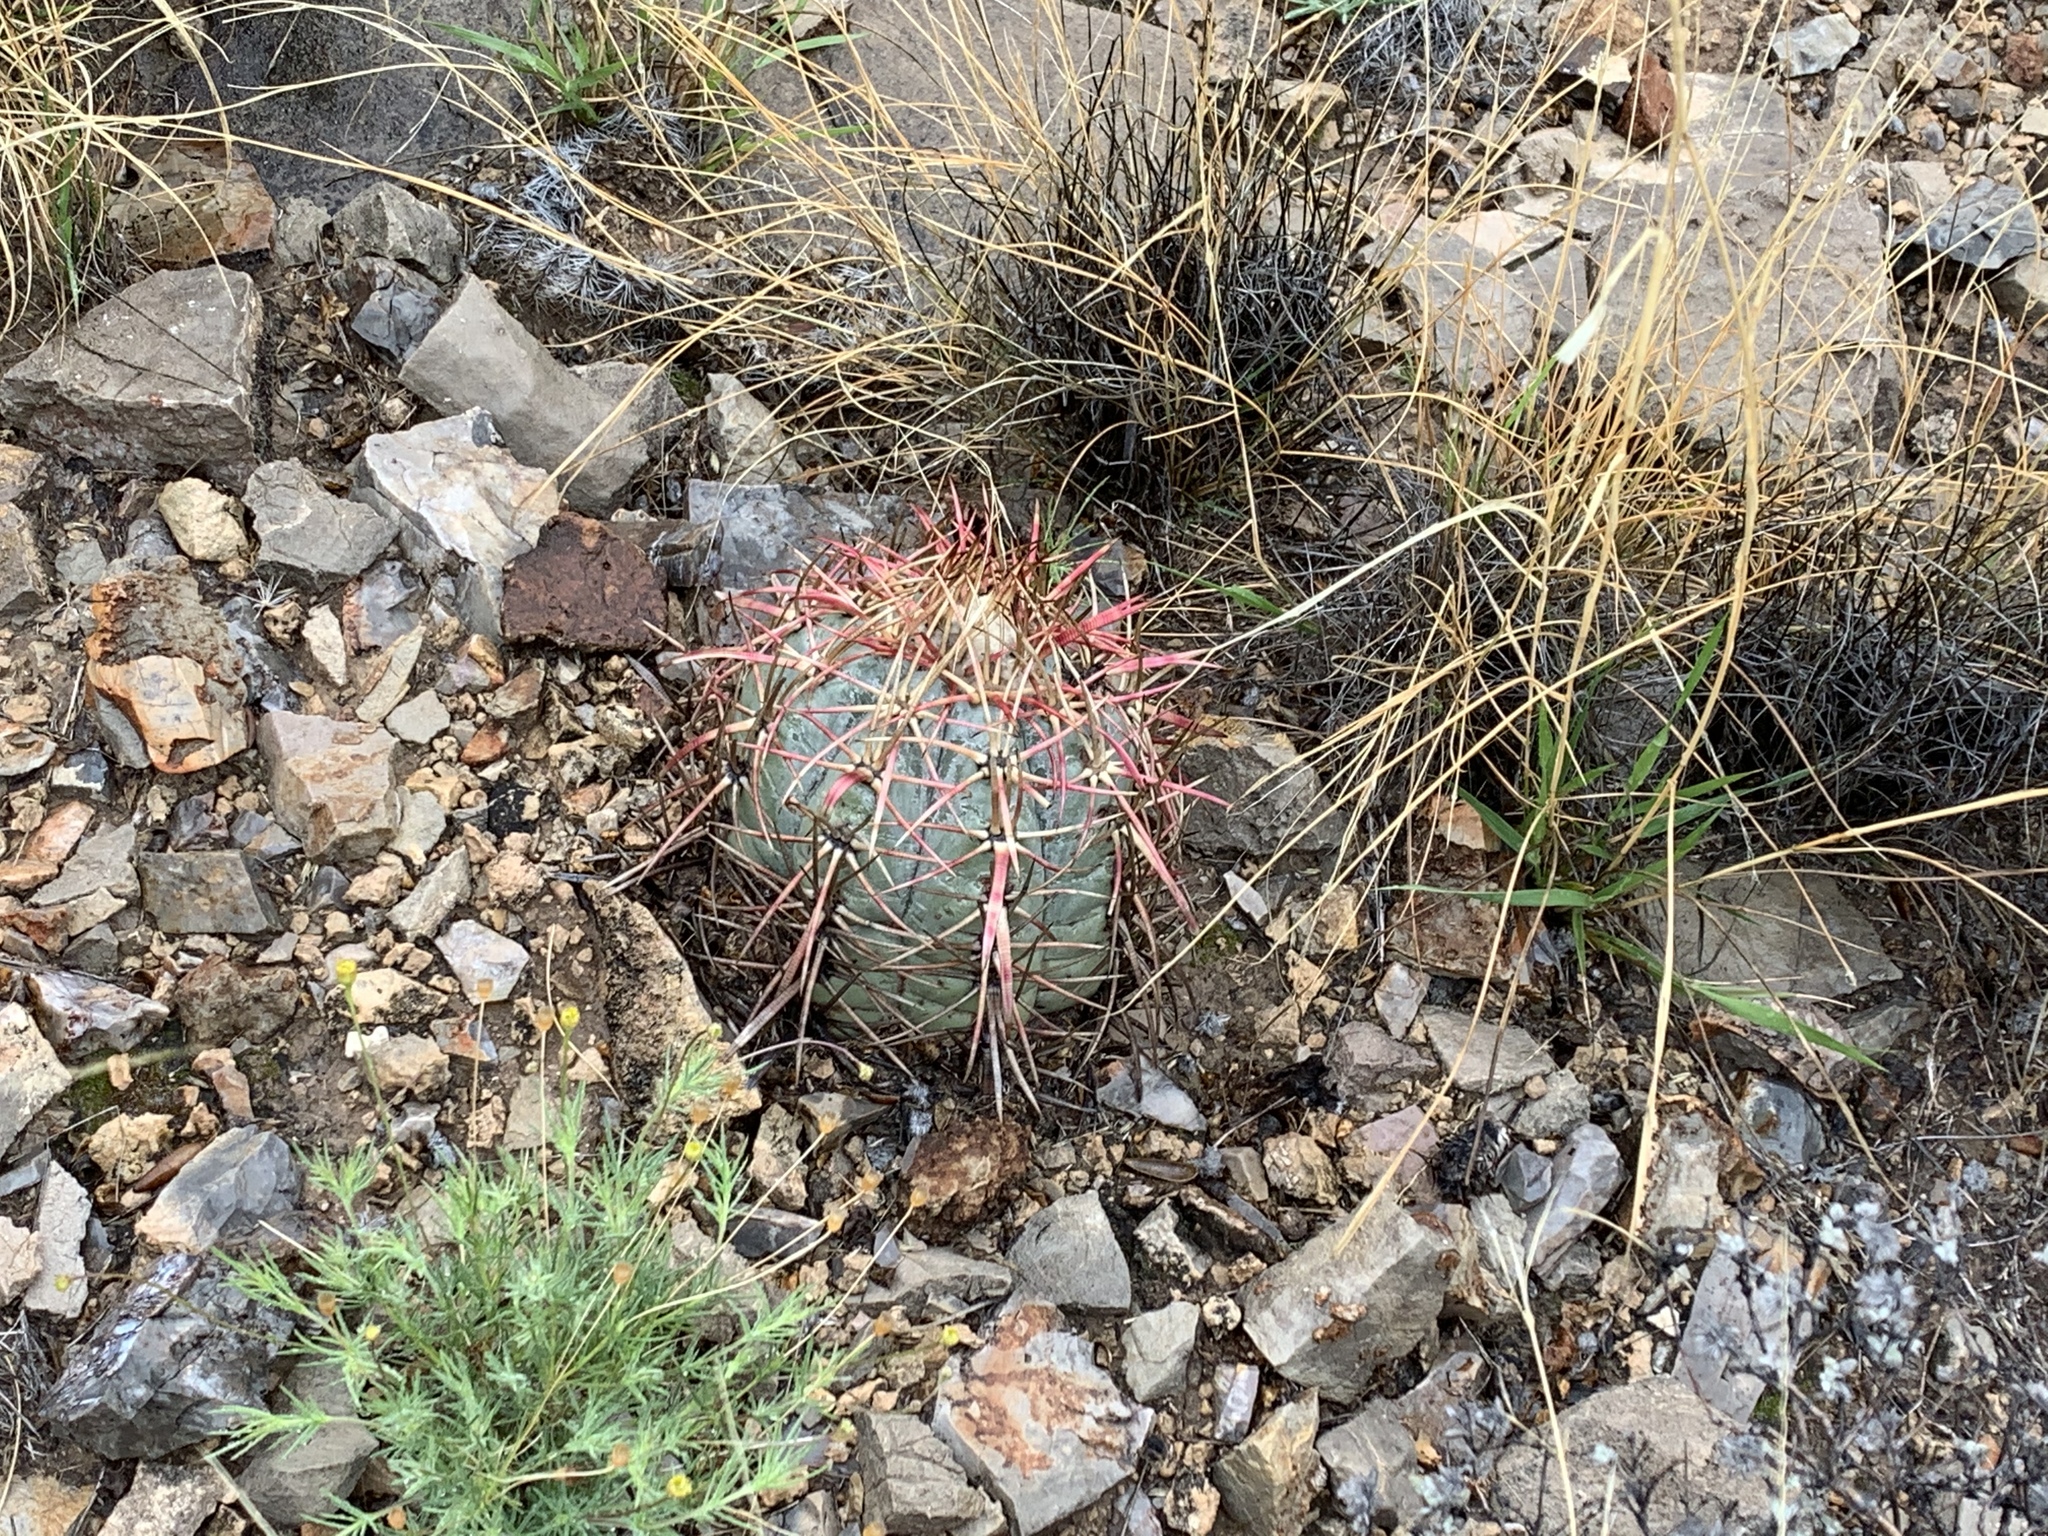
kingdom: Plantae
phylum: Tracheophyta
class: Magnoliopsida
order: Caryophyllales
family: Cactaceae
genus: Echinocactus
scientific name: Echinocactus horizonthalonius
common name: Devilshead
